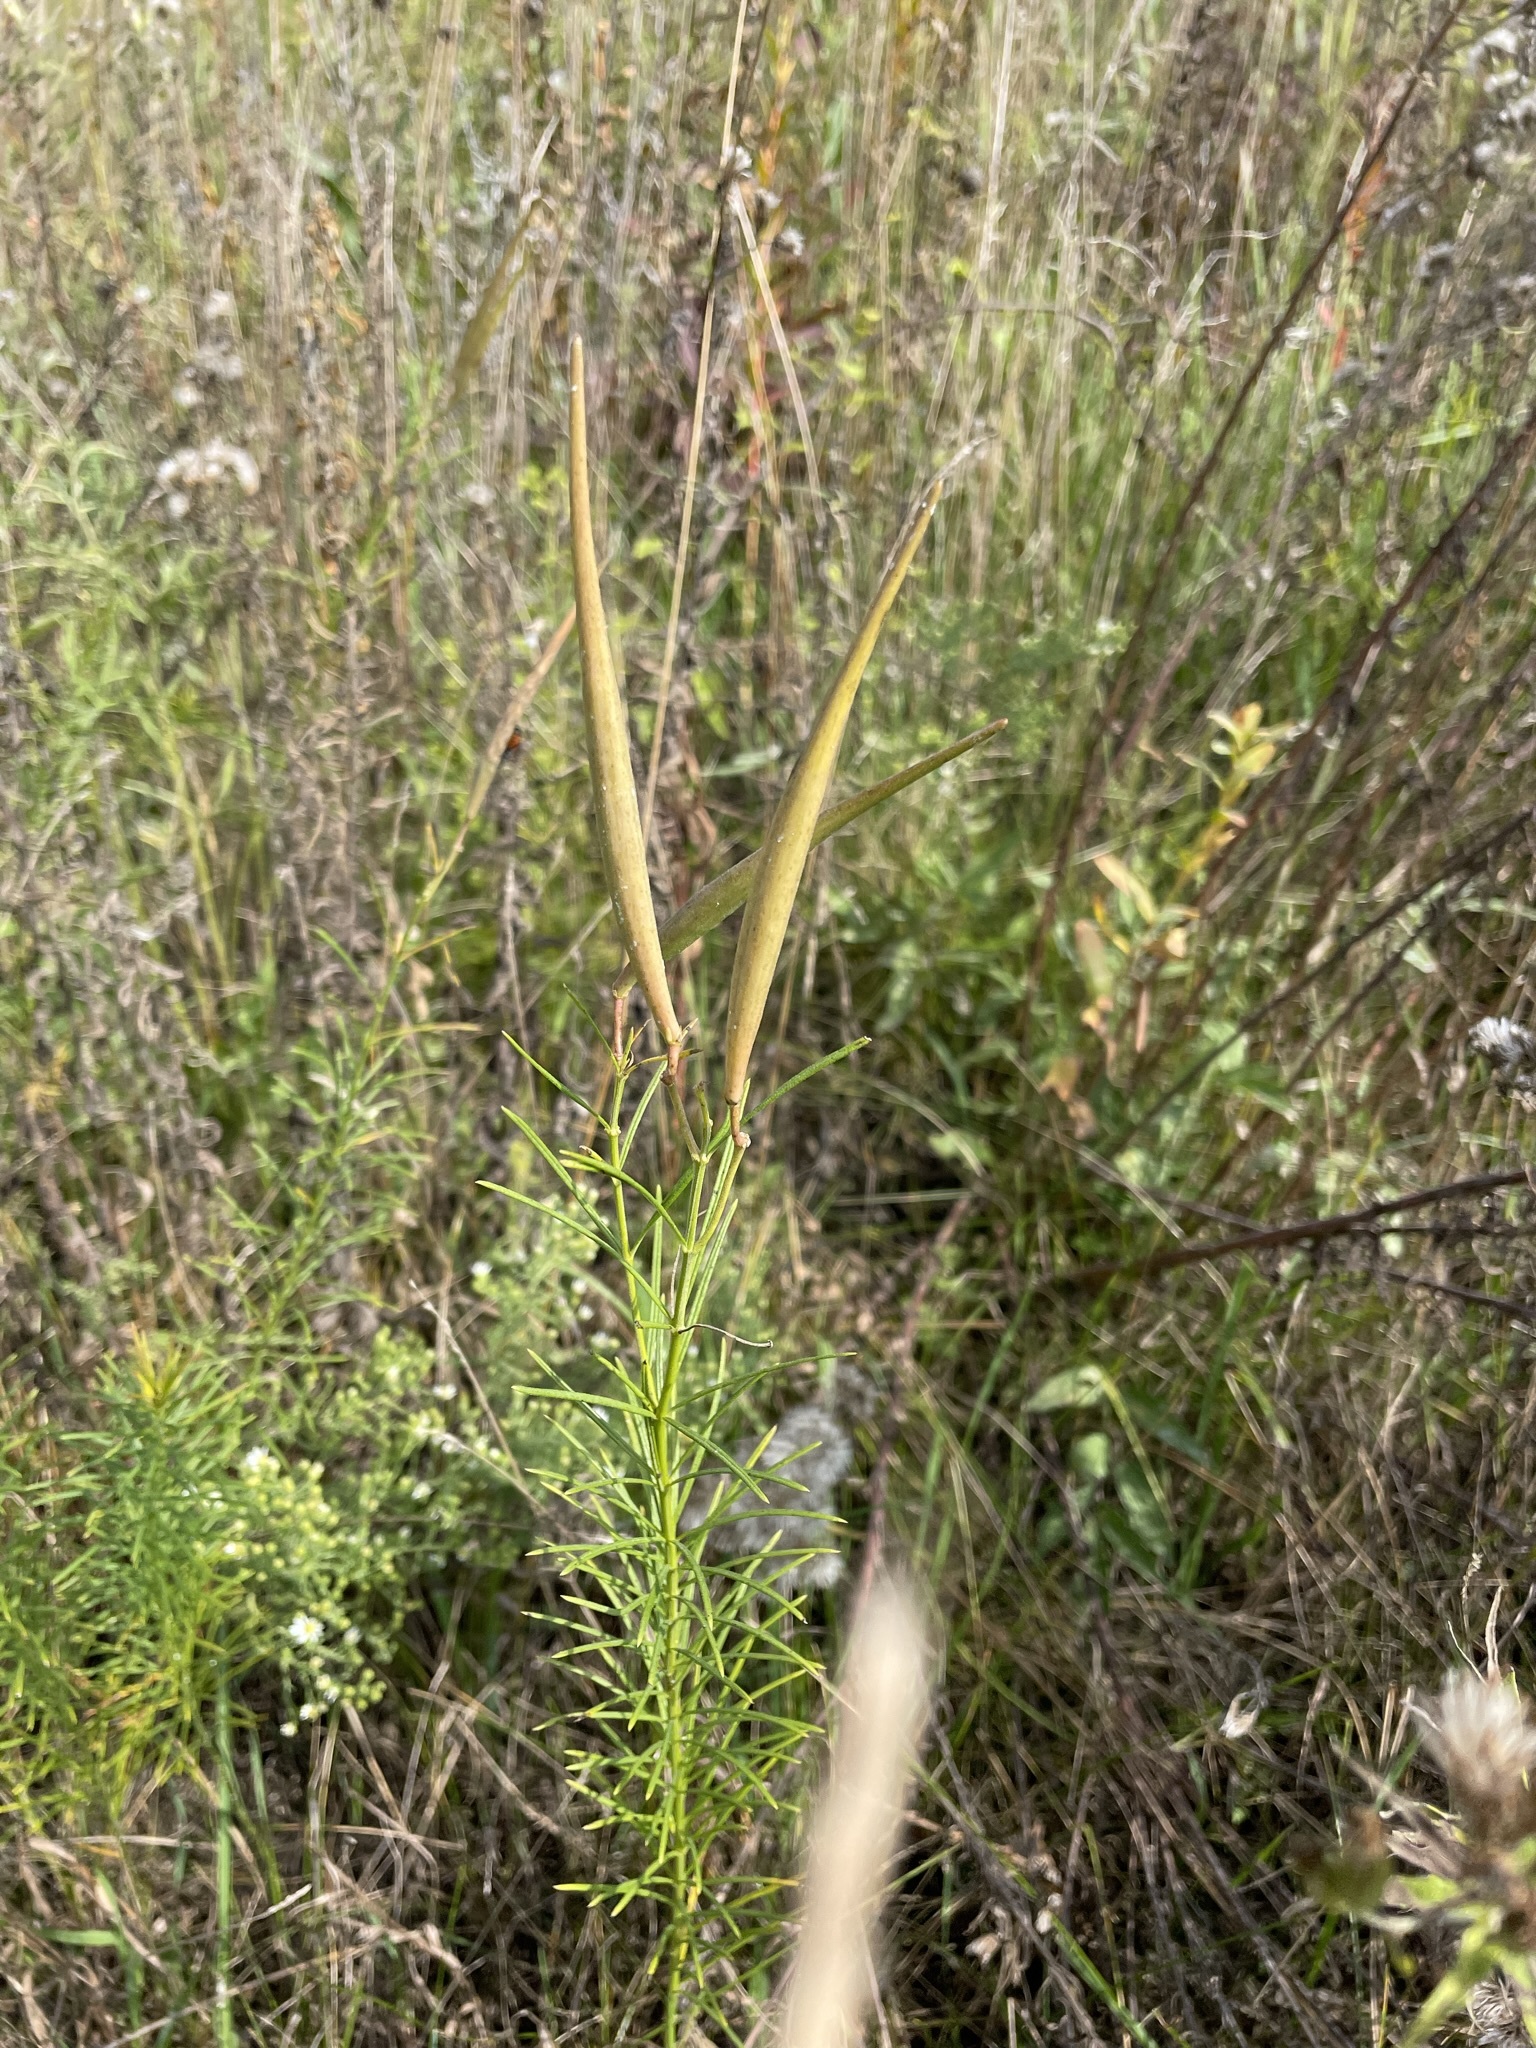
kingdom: Plantae
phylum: Tracheophyta
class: Magnoliopsida
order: Gentianales
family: Apocynaceae
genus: Asclepias
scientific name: Asclepias verticillata
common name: Eastern whorled milkweed
